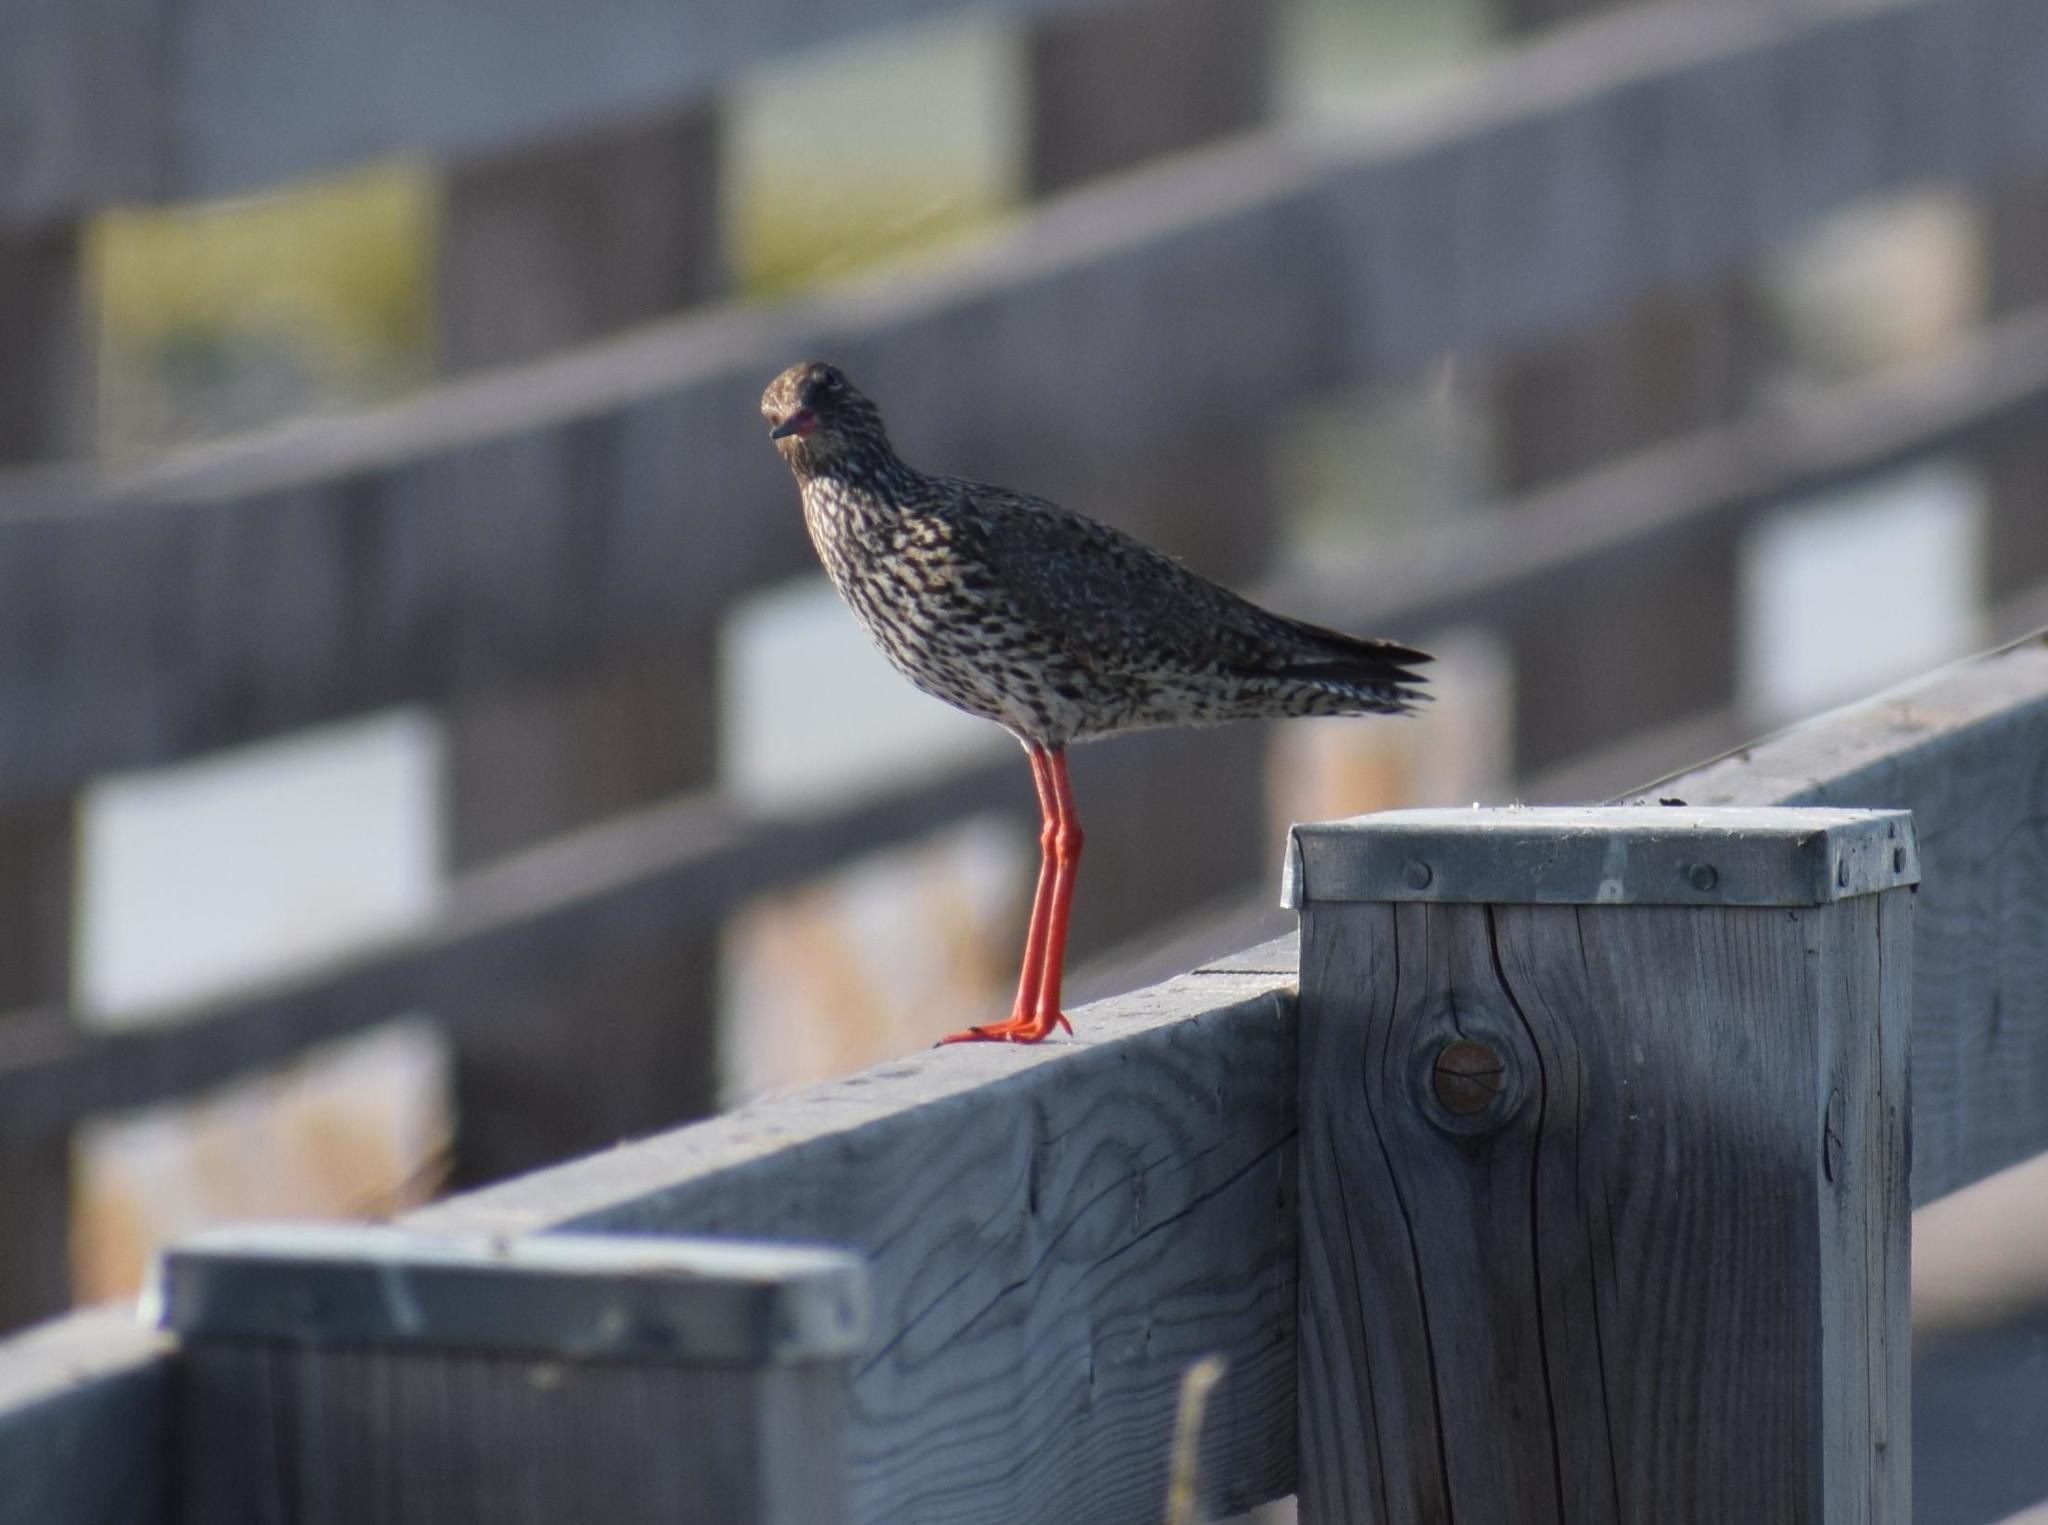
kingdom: Animalia
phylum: Chordata
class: Aves
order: Charadriiformes
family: Scolopacidae
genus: Tringa
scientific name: Tringa totanus
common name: Common redshank
